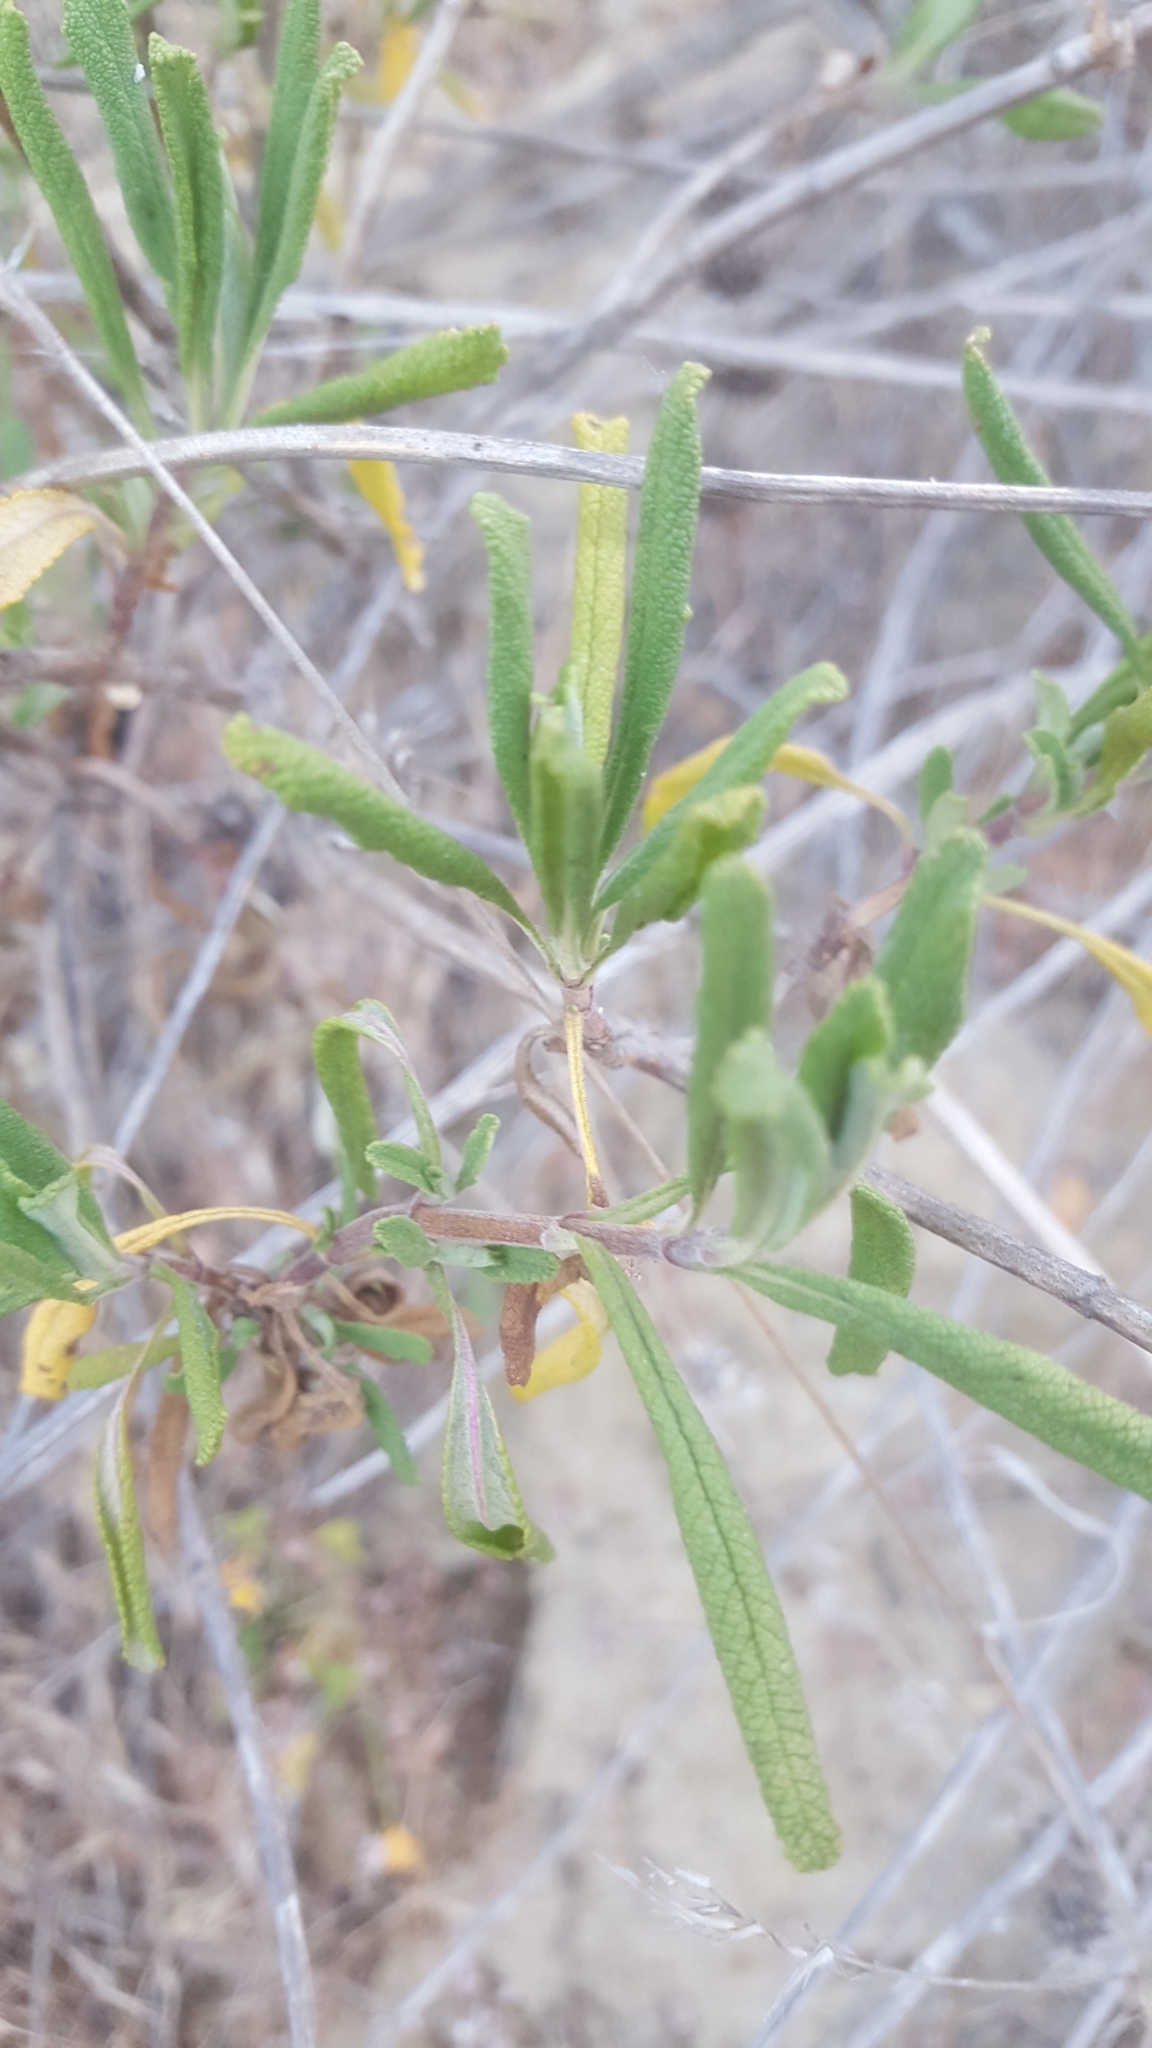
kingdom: Plantae
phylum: Tracheophyta
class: Magnoliopsida
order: Lamiales
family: Lamiaceae
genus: Salvia
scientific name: Salvia mellifera
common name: Black sage
